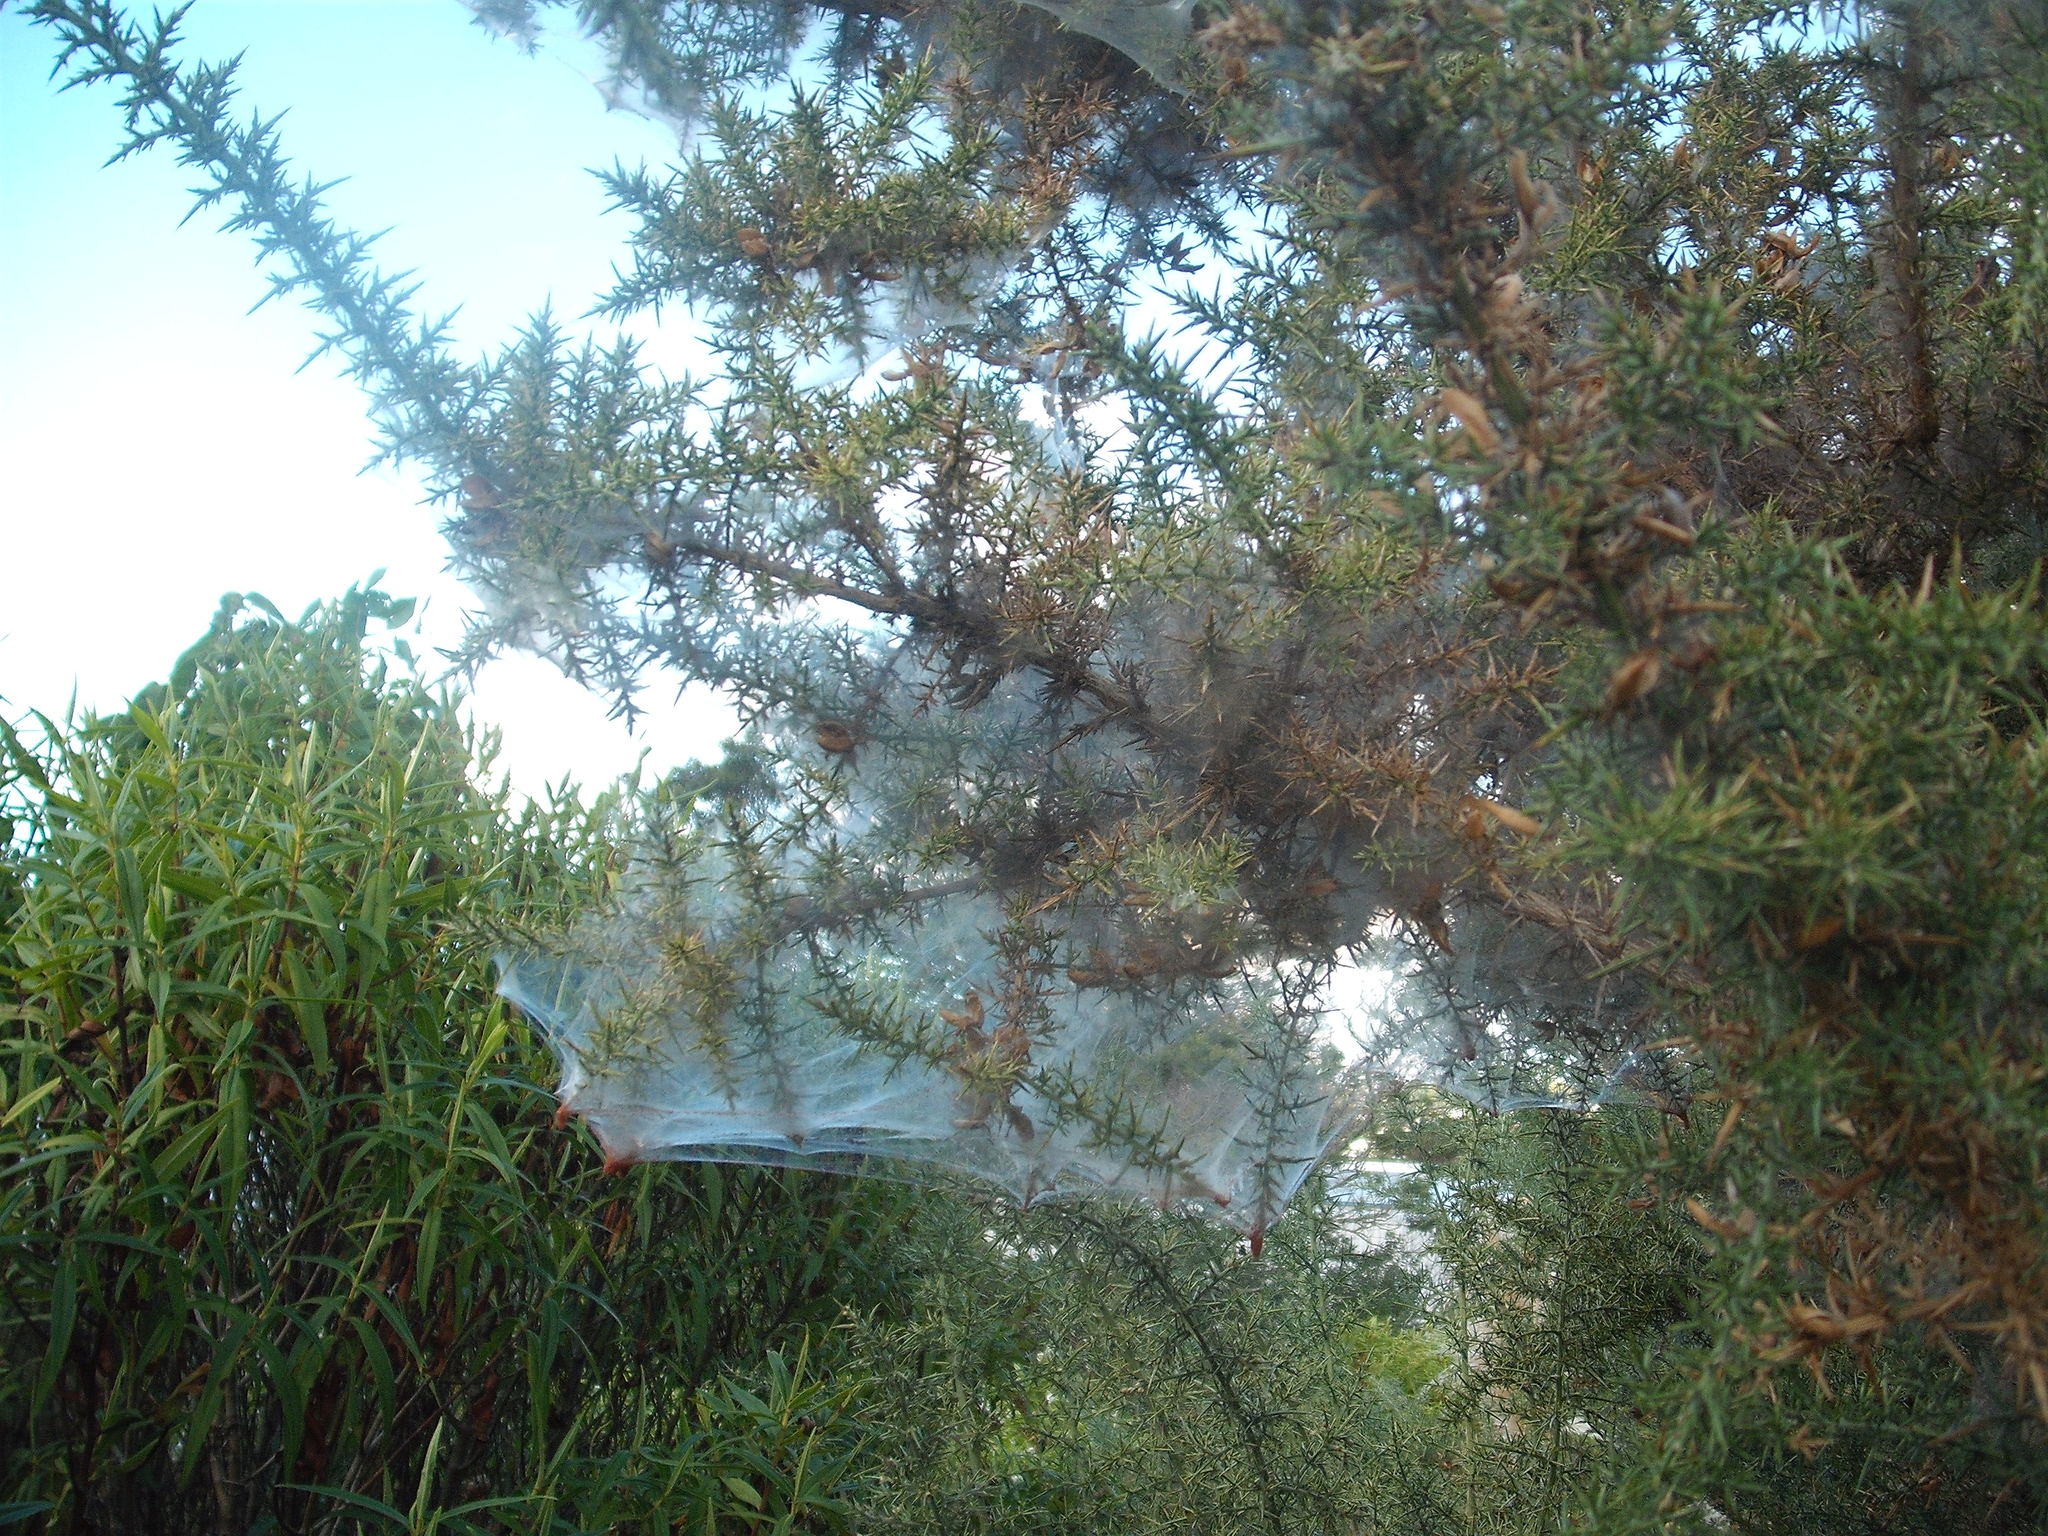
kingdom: Animalia
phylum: Arthropoda
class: Arachnida
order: Trombidiformes
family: Tetranychidae
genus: Tetranychus
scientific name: Tetranychus lintearius
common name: Gorse spider mite
